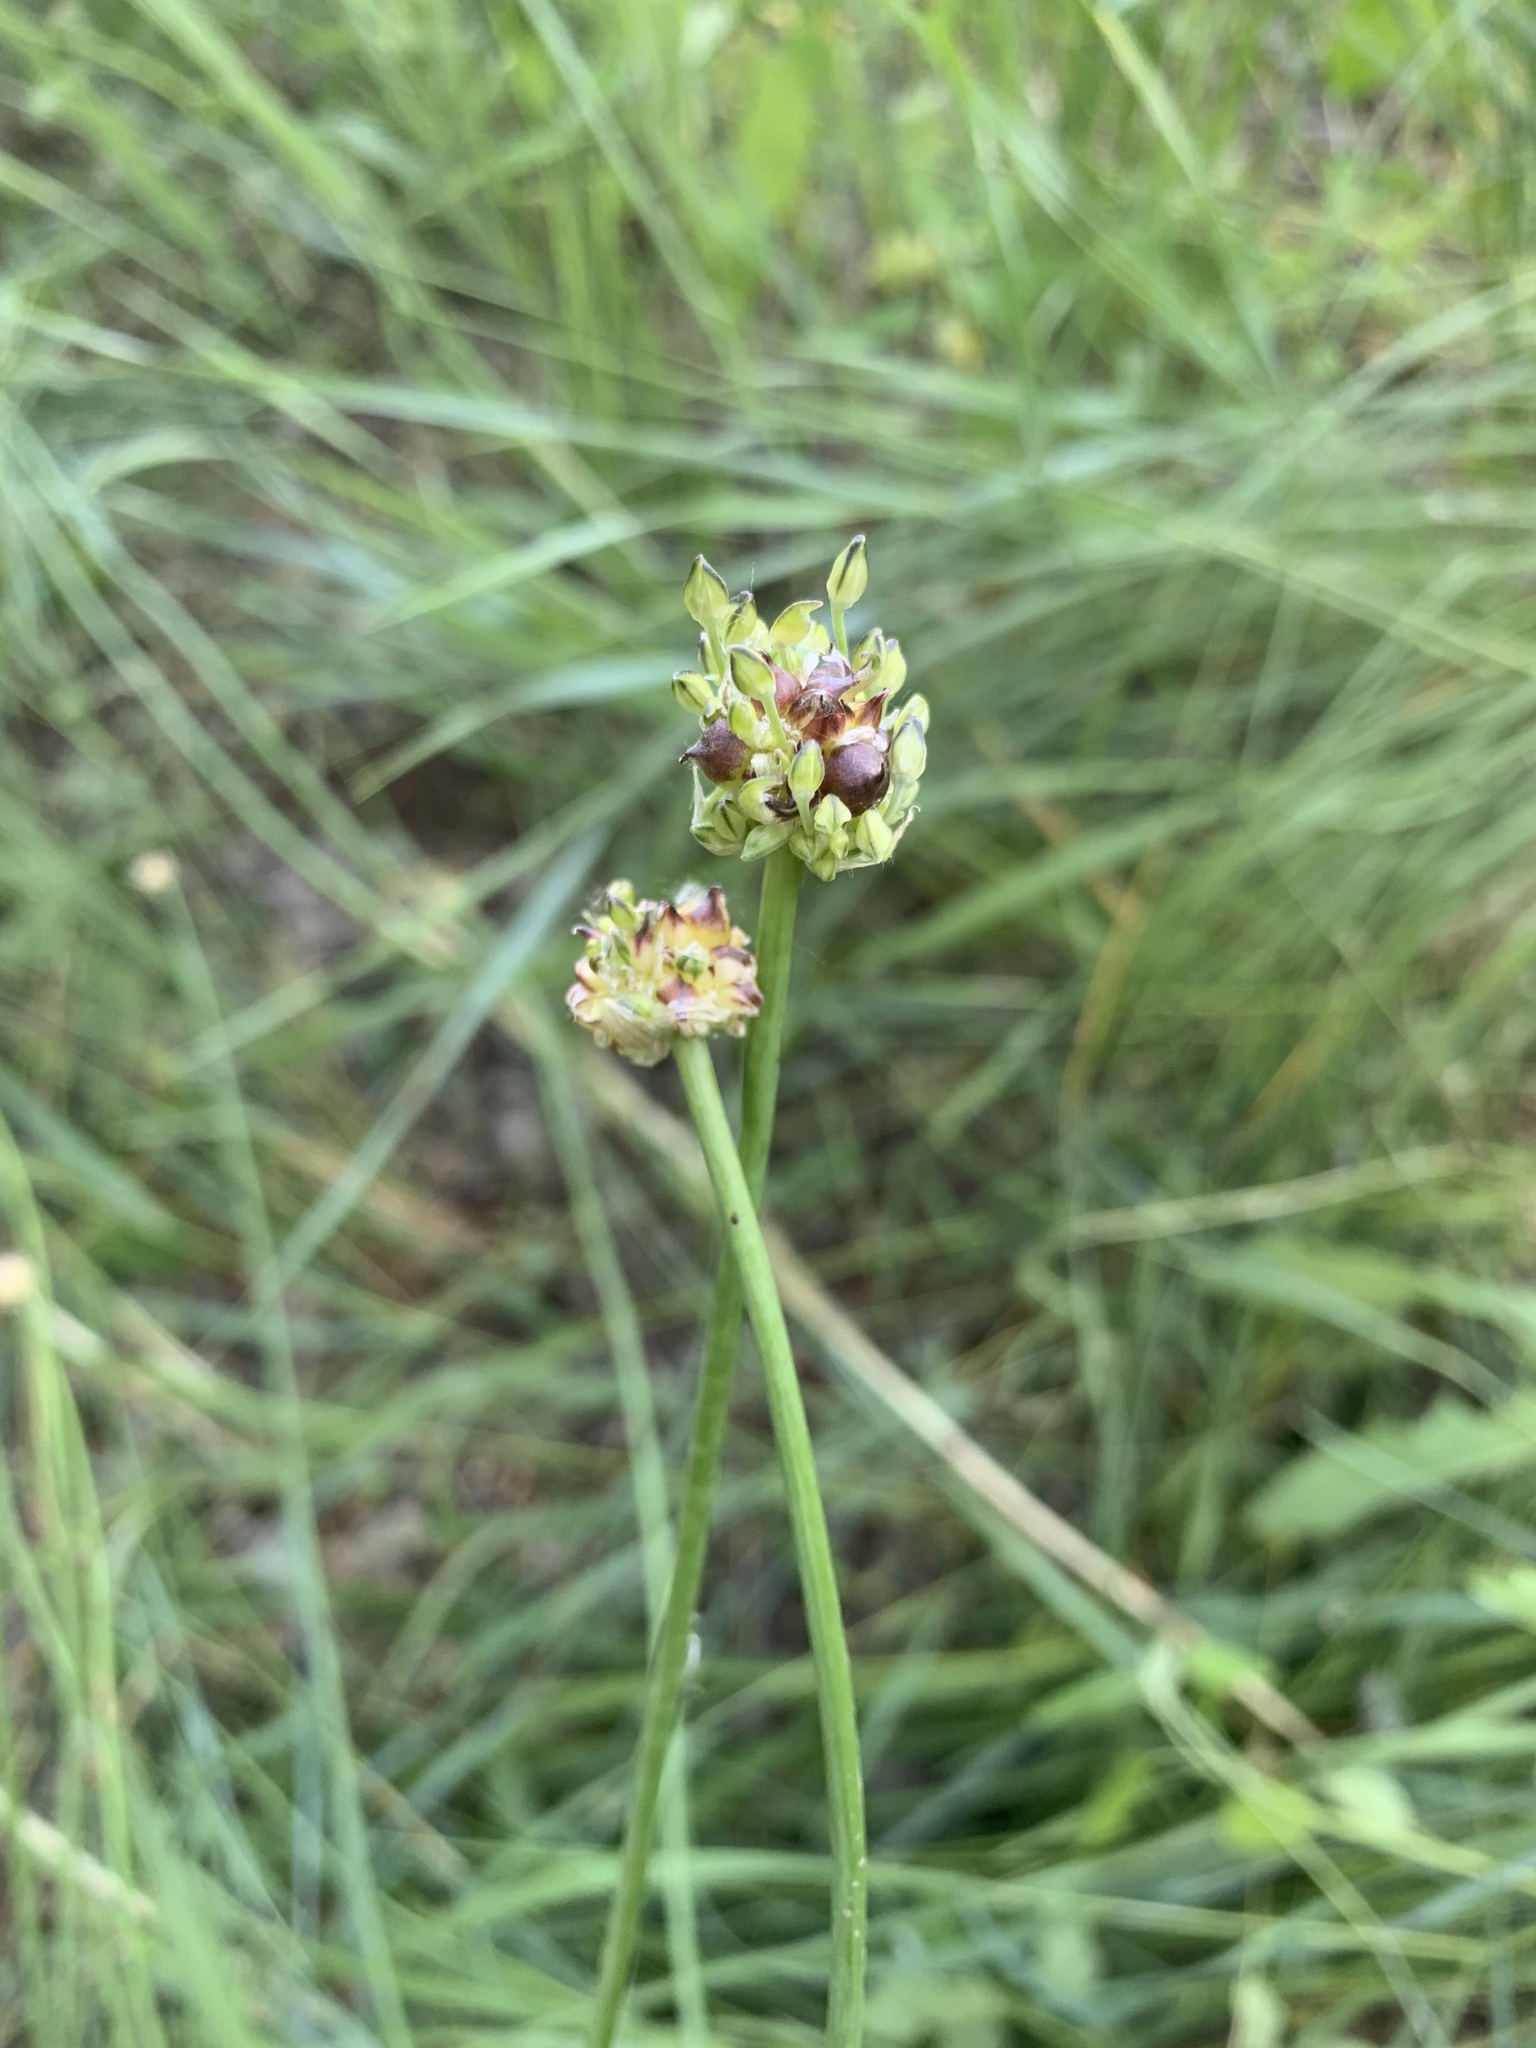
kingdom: Plantae
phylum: Tracheophyta
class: Liliopsida
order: Asparagales
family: Amaryllidaceae
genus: Allium
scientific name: Allium caeruleum
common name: Blue-of-the-heavens
